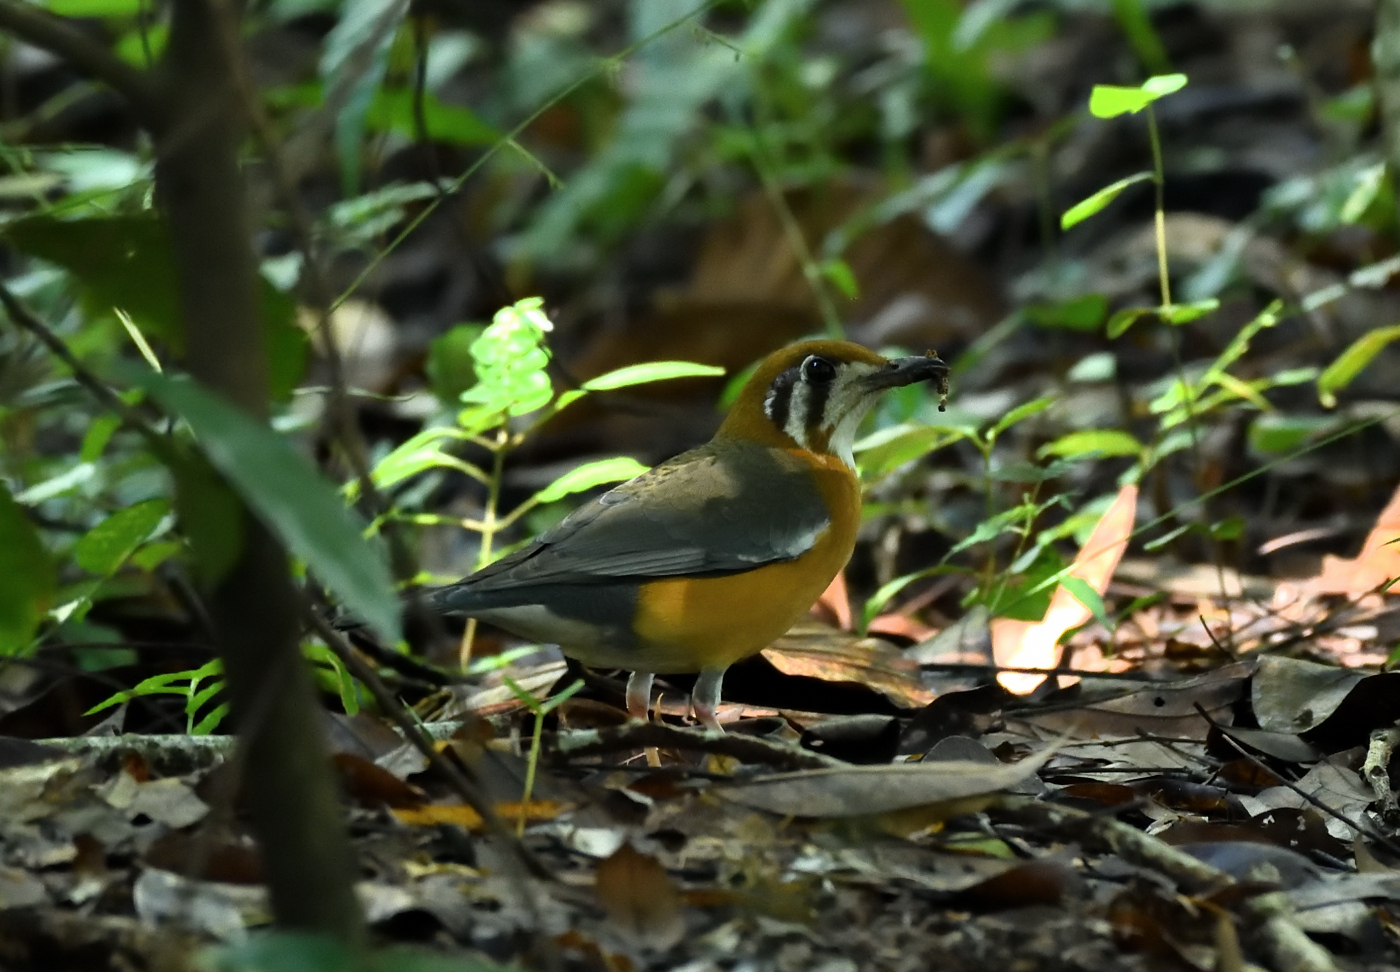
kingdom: Animalia
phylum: Chordata
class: Aves
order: Passeriformes
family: Turdidae
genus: Geokichla
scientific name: Geokichla citrina
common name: Orange-headed thrush
